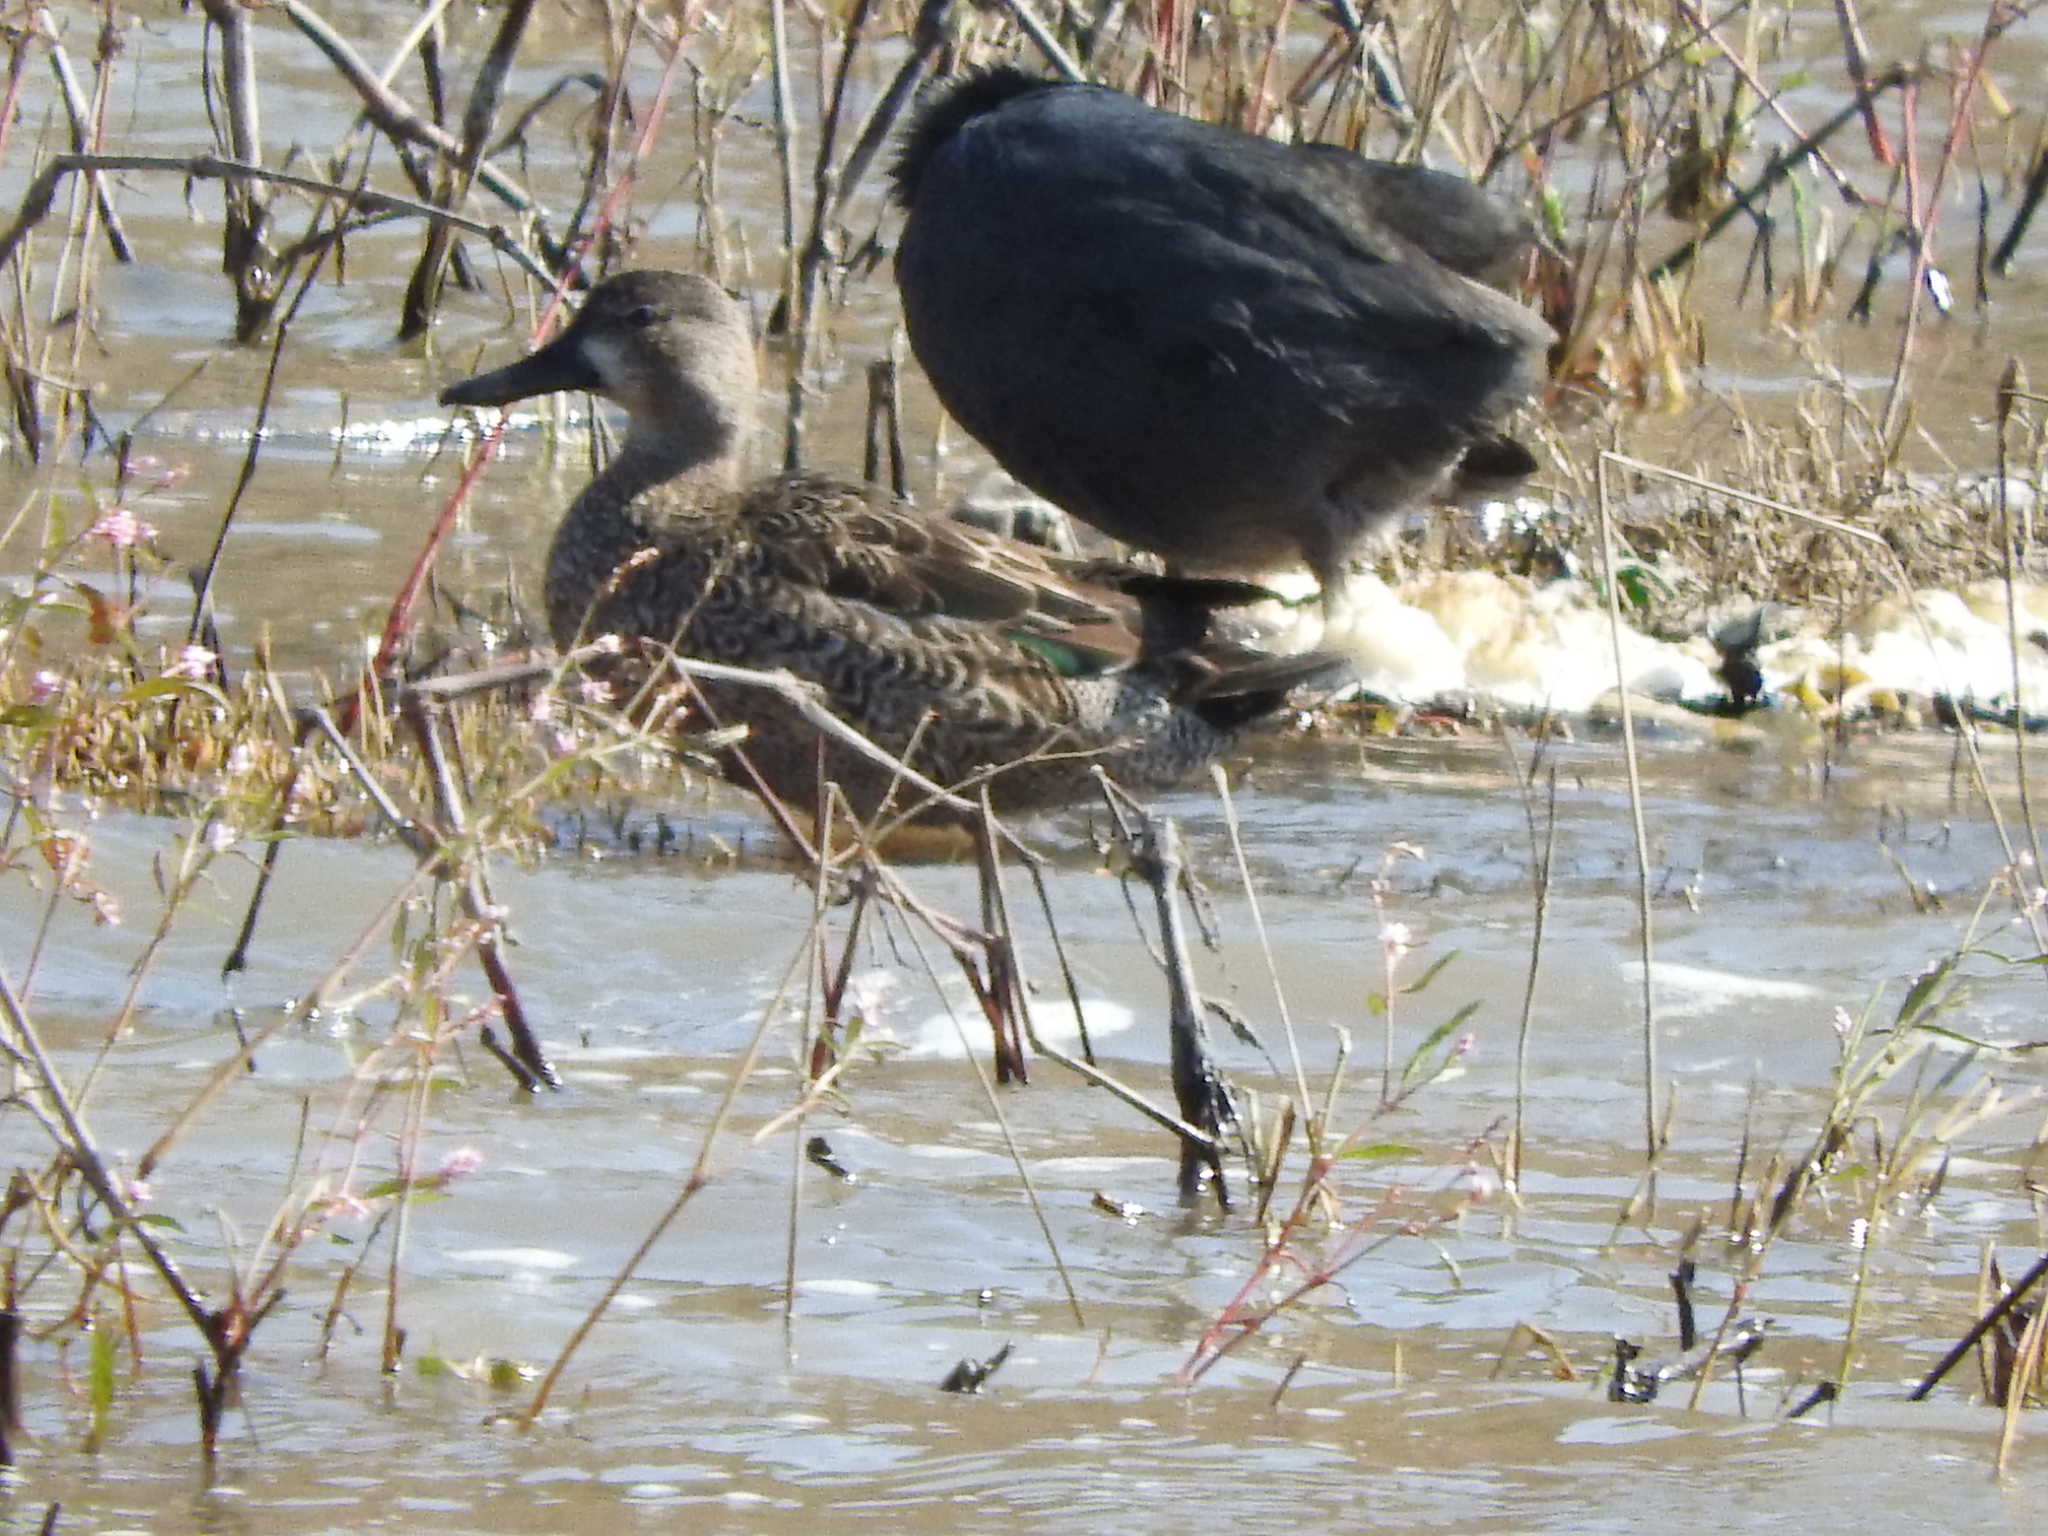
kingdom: Animalia
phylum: Chordata
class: Aves
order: Anseriformes
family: Anatidae
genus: Spatula
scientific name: Spatula discors
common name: Blue-winged teal
